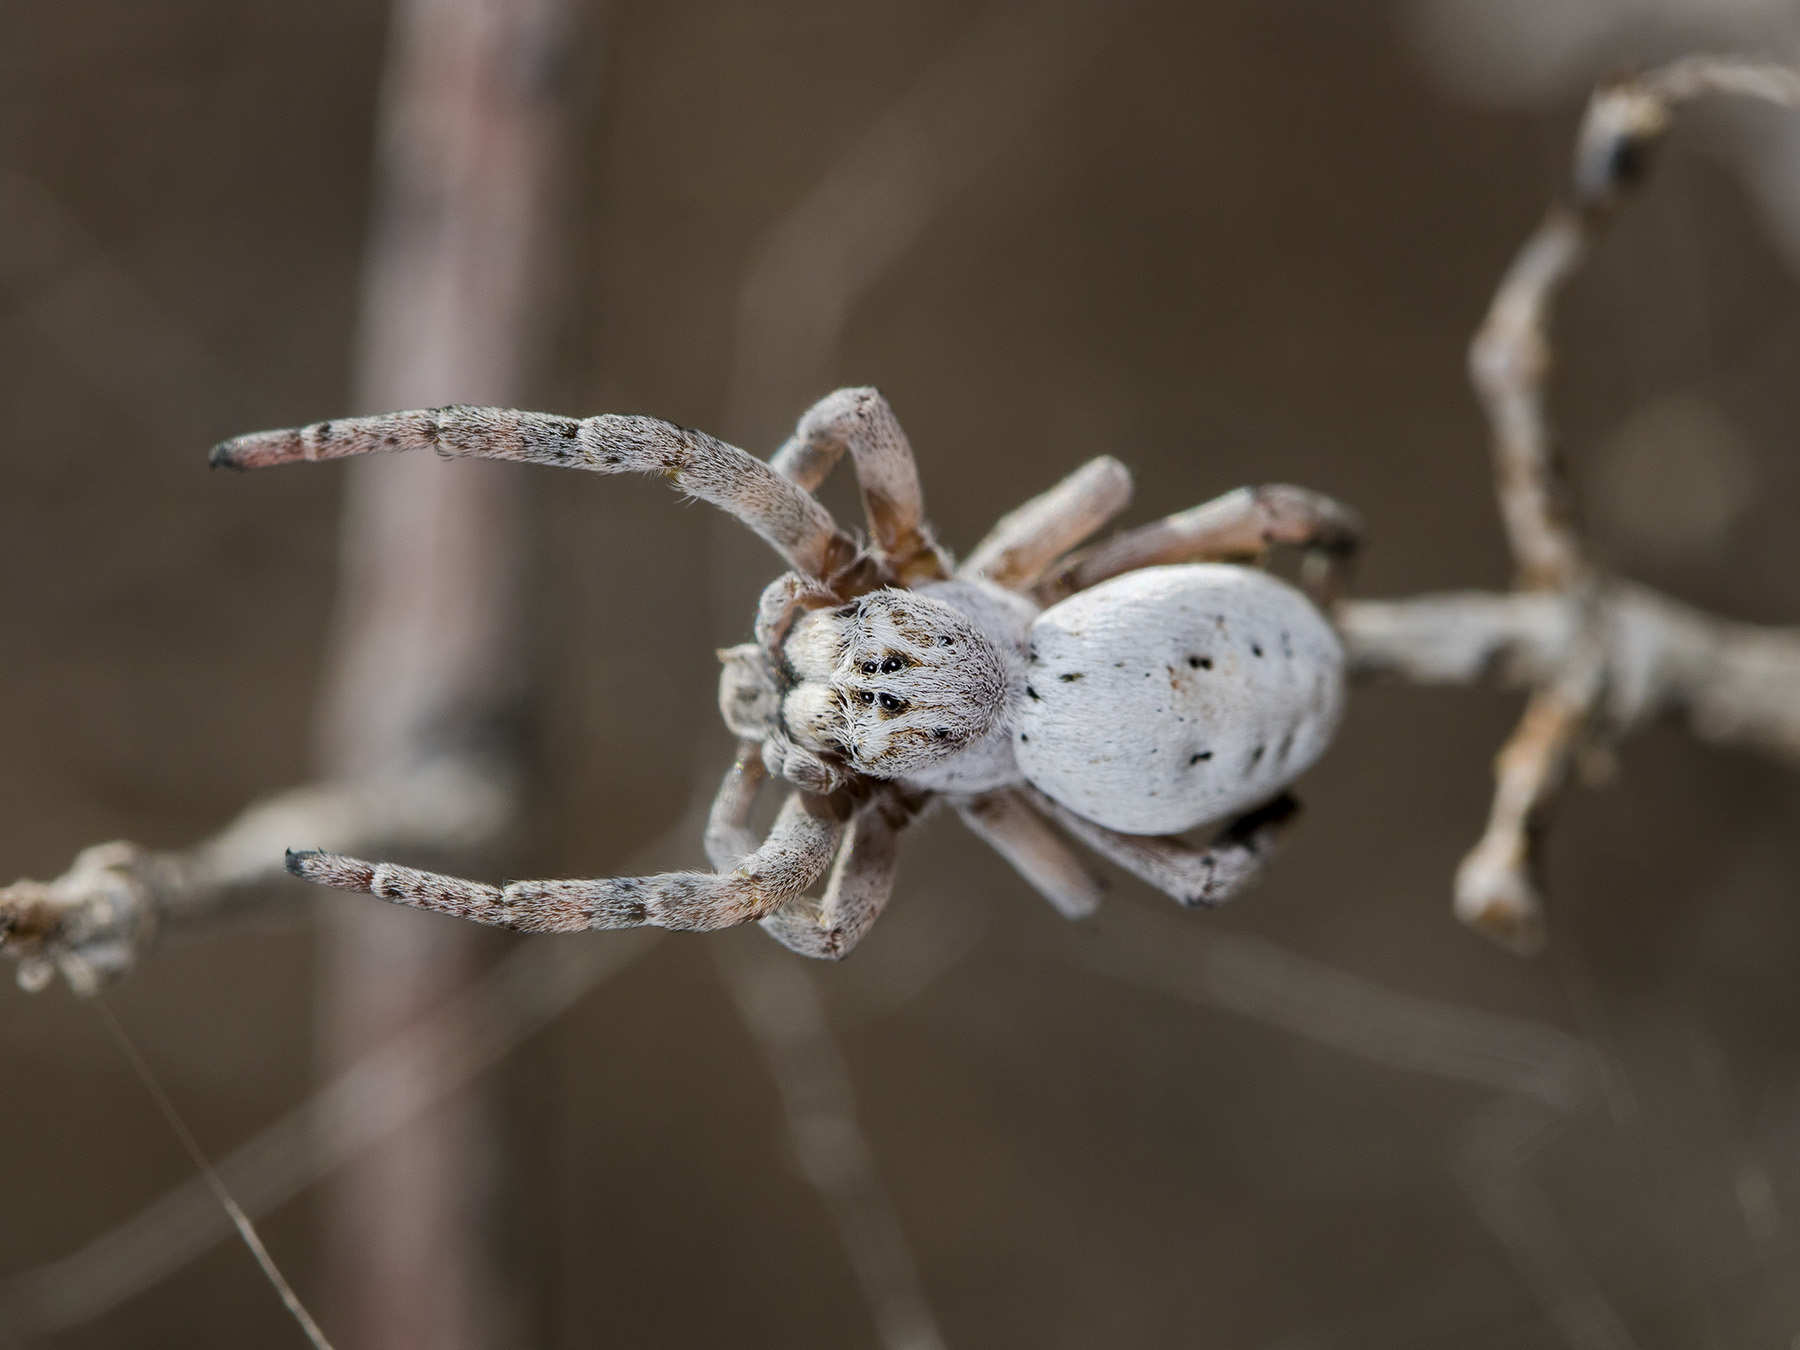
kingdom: Animalia
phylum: Arthropoda
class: Arachnida
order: Araneae
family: Eresidae
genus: Stegodyphus
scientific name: Stegodyphus lineatus
